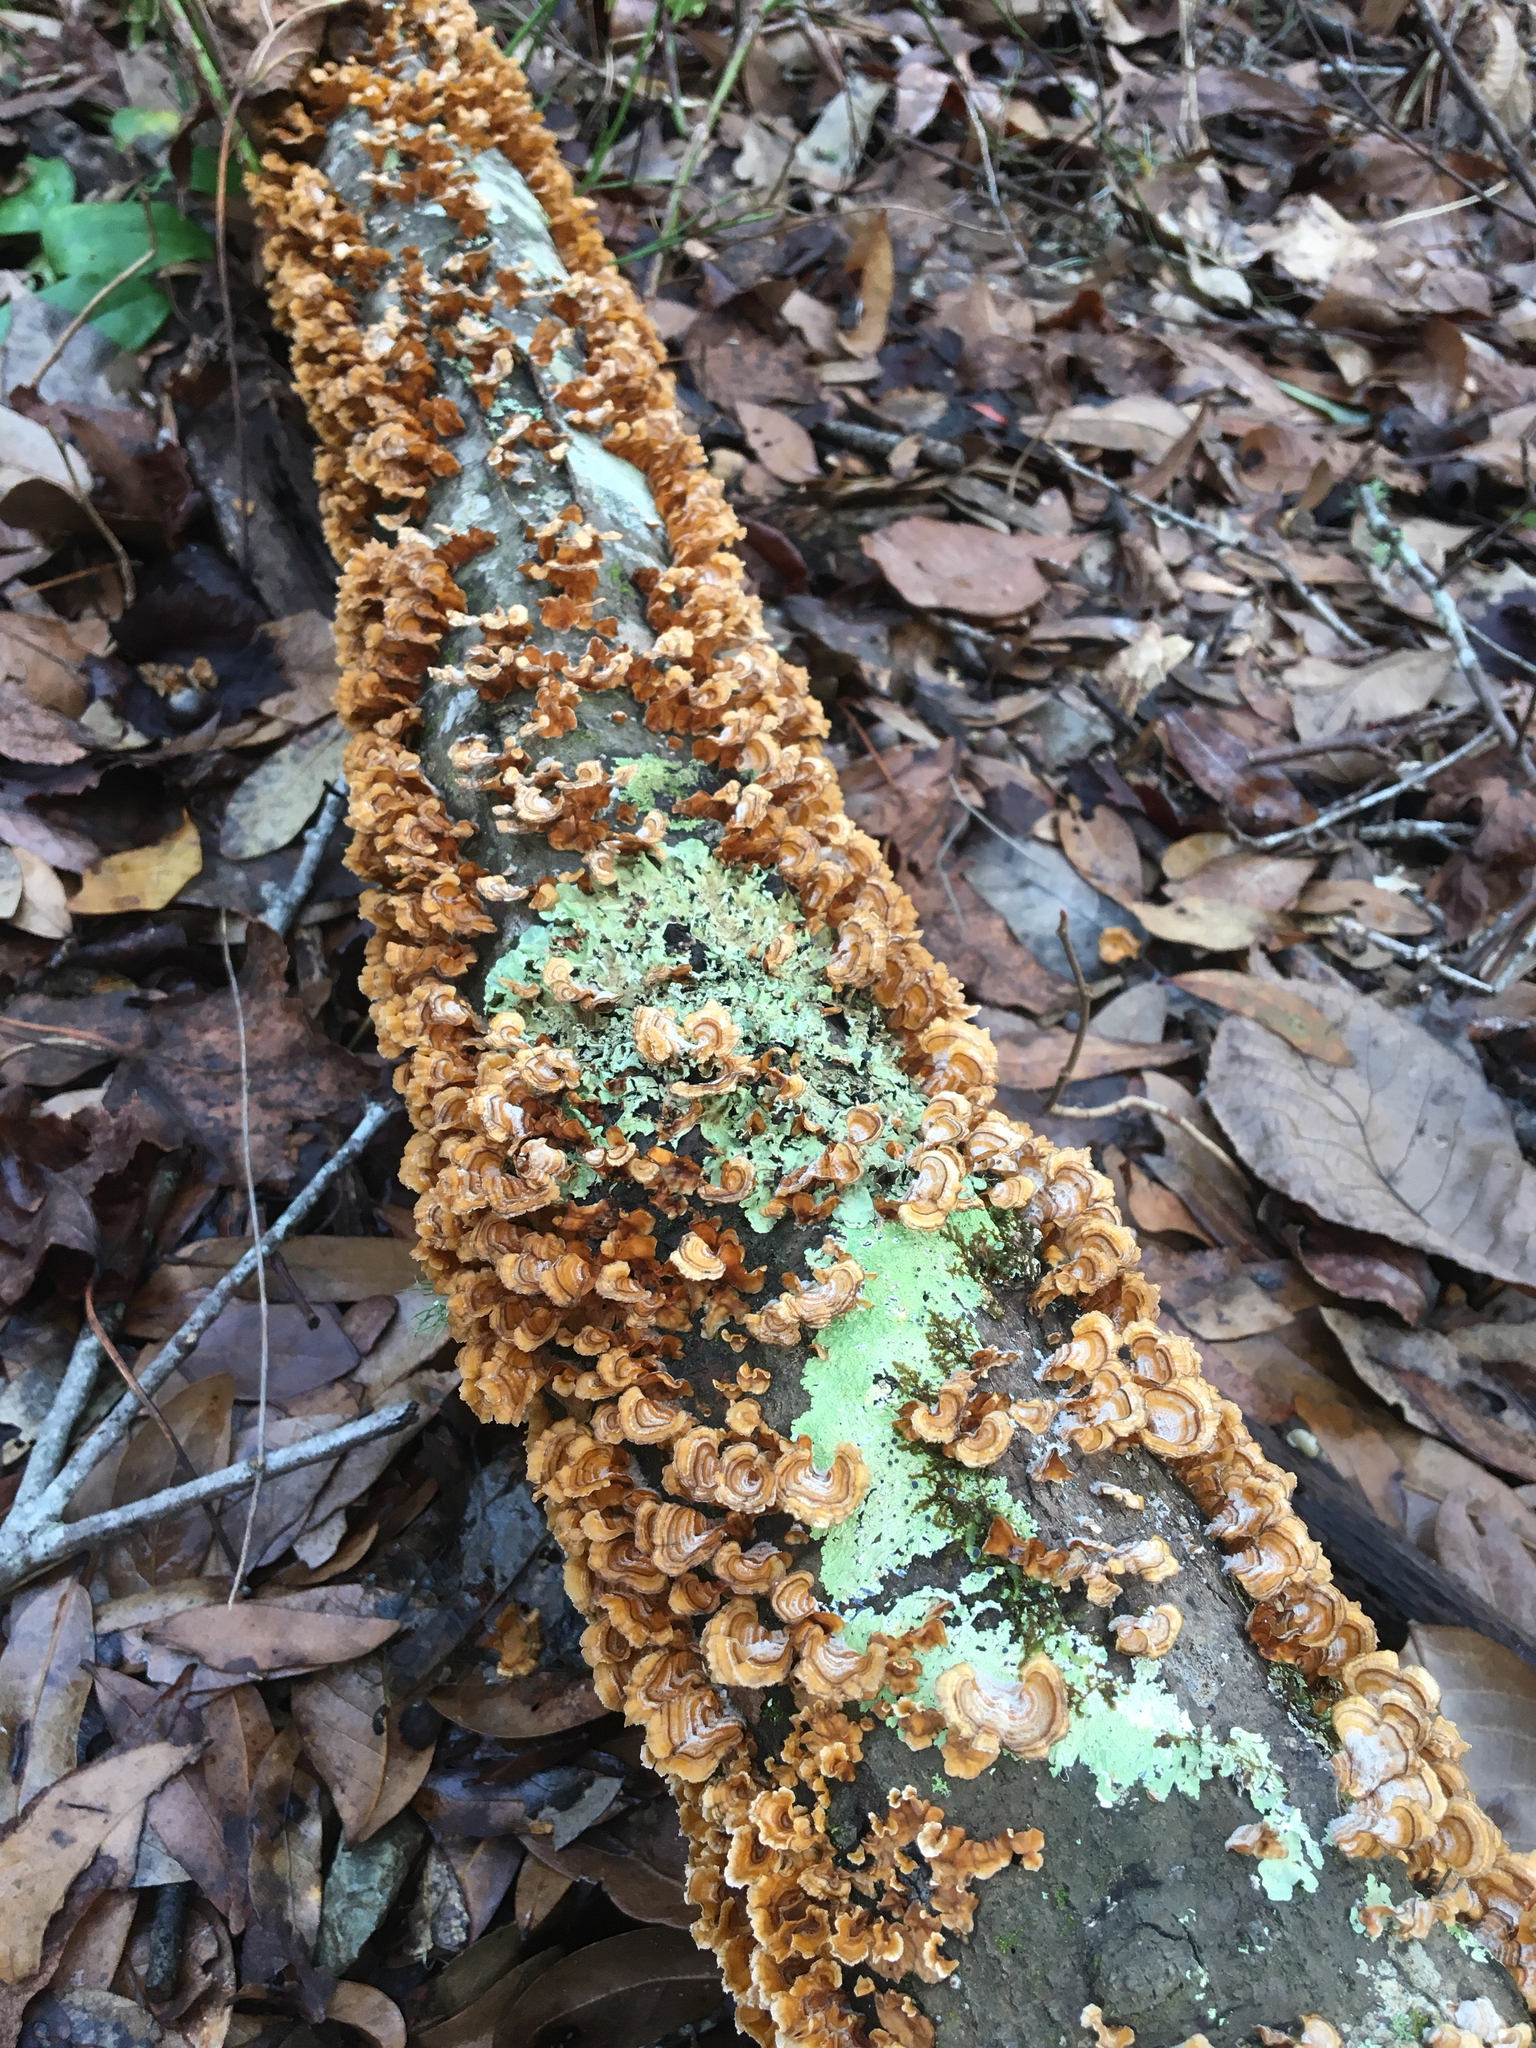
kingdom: Fungi
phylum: Basidiomycota
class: Agaricomycetes
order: Russulales
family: Stereaceae
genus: Stereum
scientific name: Stereum complicatum
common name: Crowded parchment
